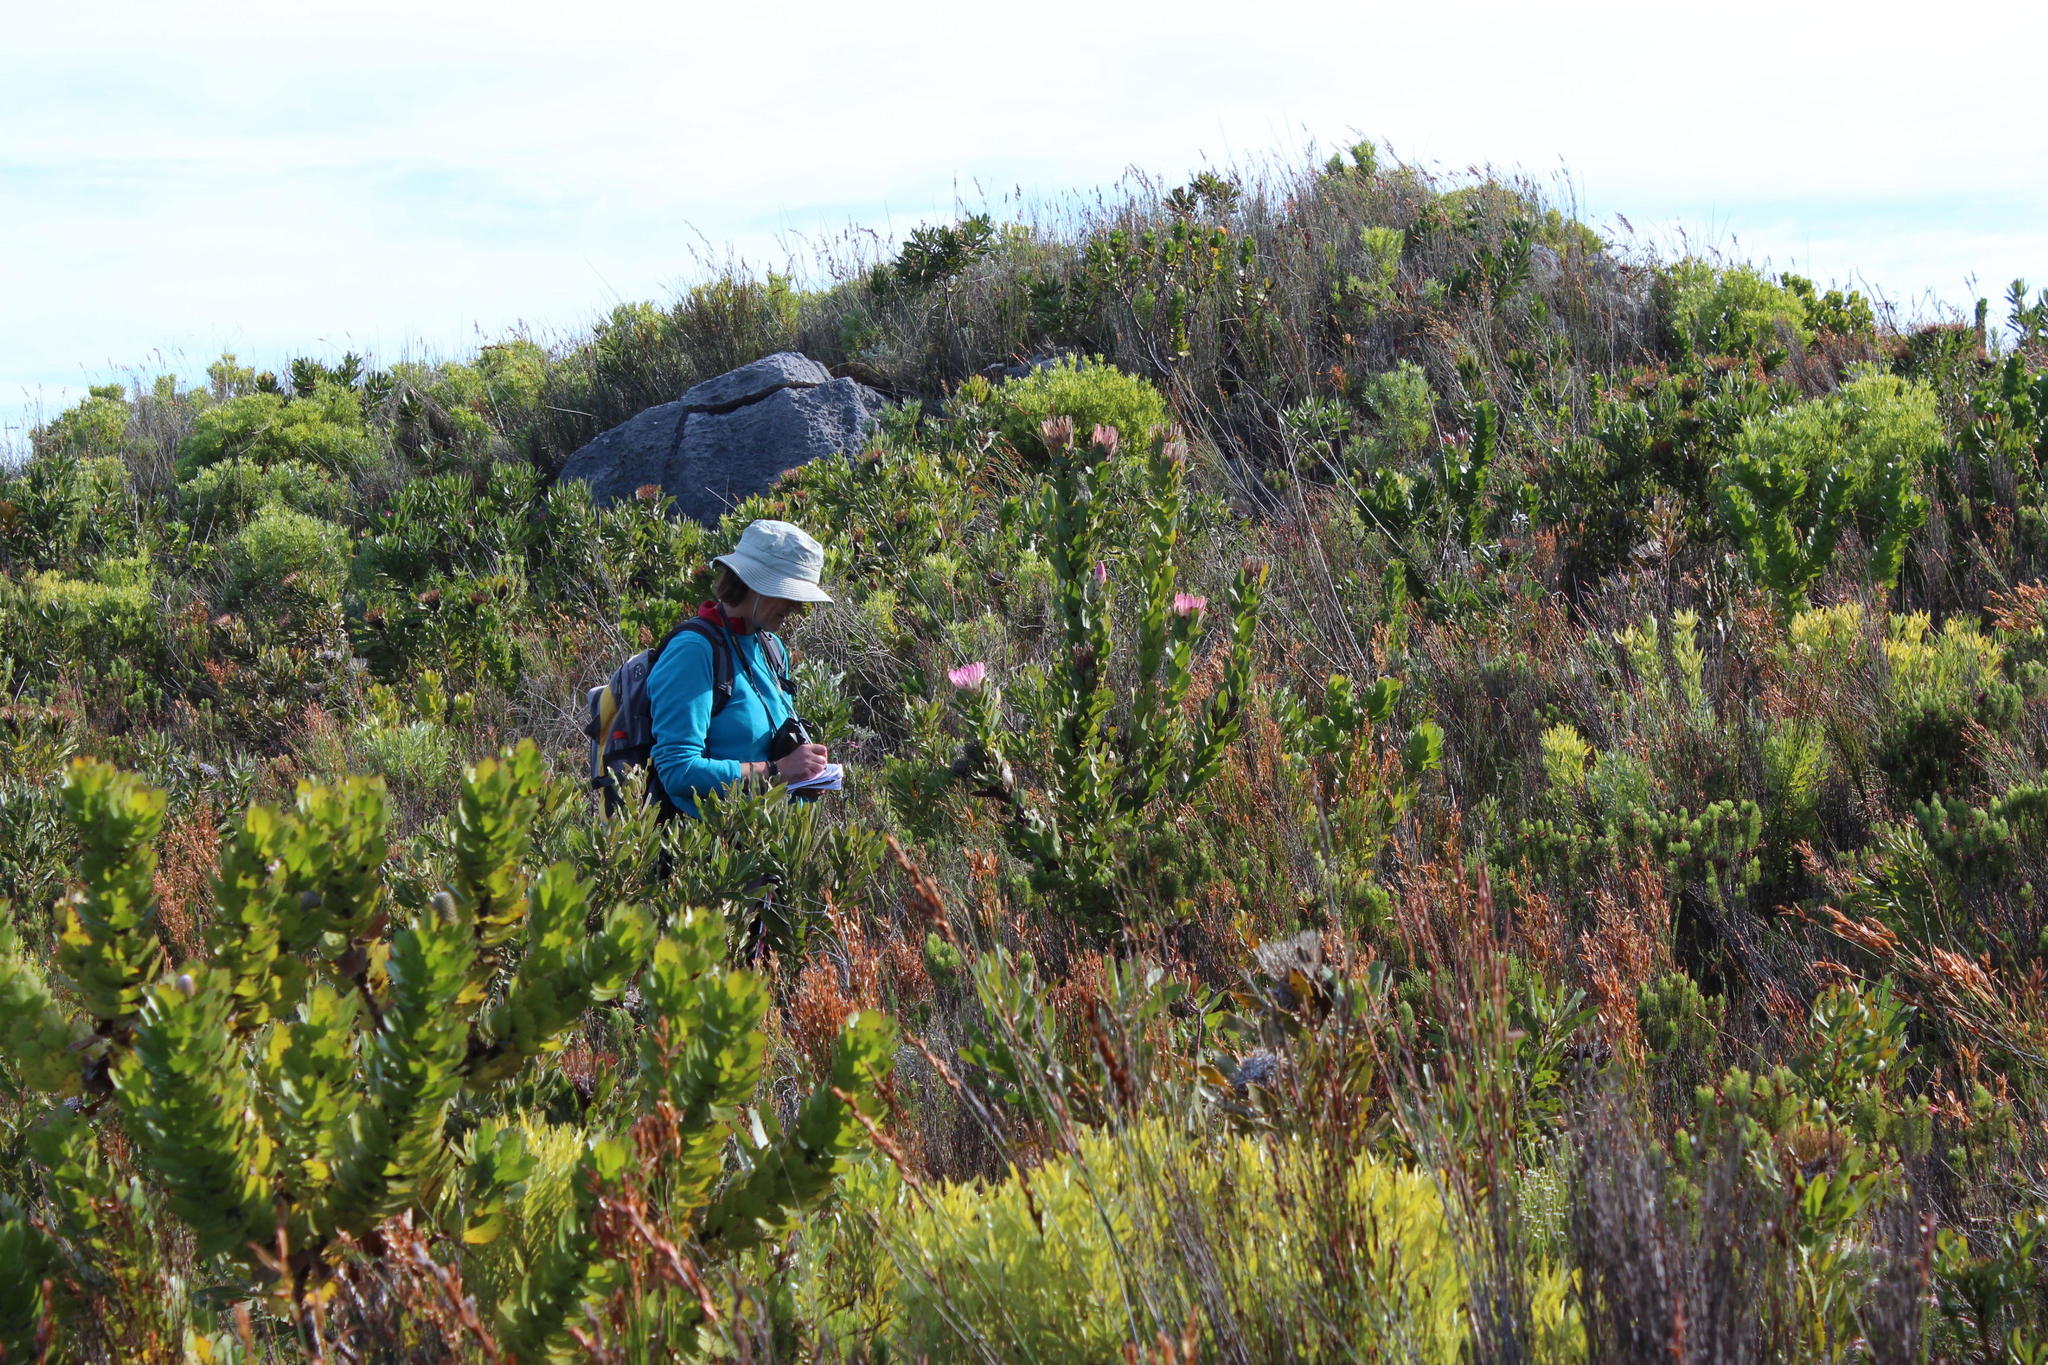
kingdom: Plantae
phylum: Tracheophyta
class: Magnoliopsida
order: Proteales
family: Proteaceae
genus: Protea
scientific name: Protea compacta
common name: Bot river protea
